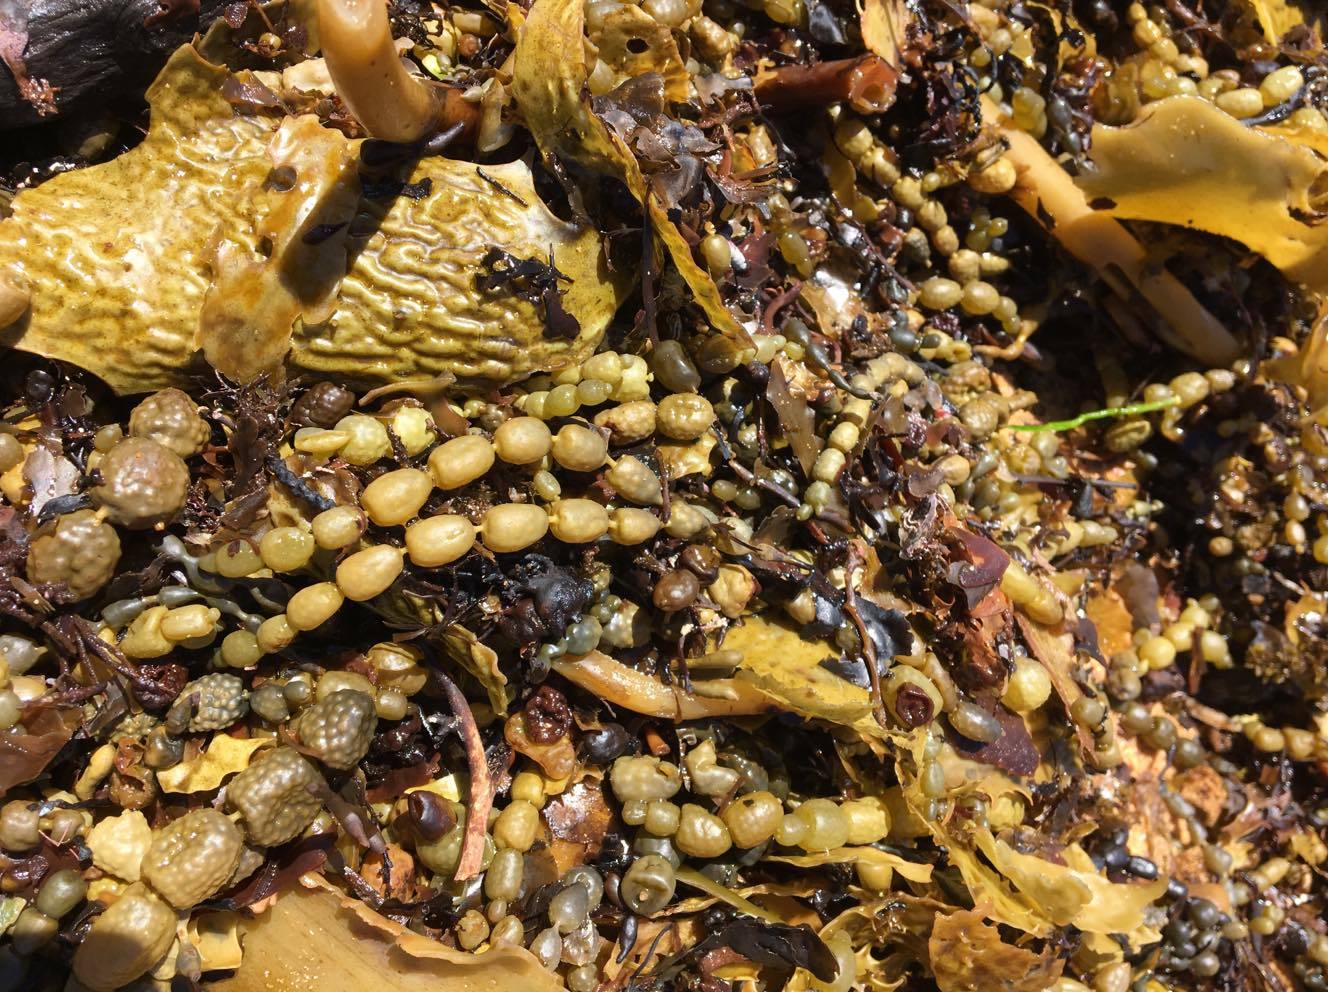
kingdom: Chromista
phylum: Ochrophyta
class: Phaeophyceae
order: Fucales
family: Hormosiraceae
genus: Hormosira
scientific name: Hormosira banksii
